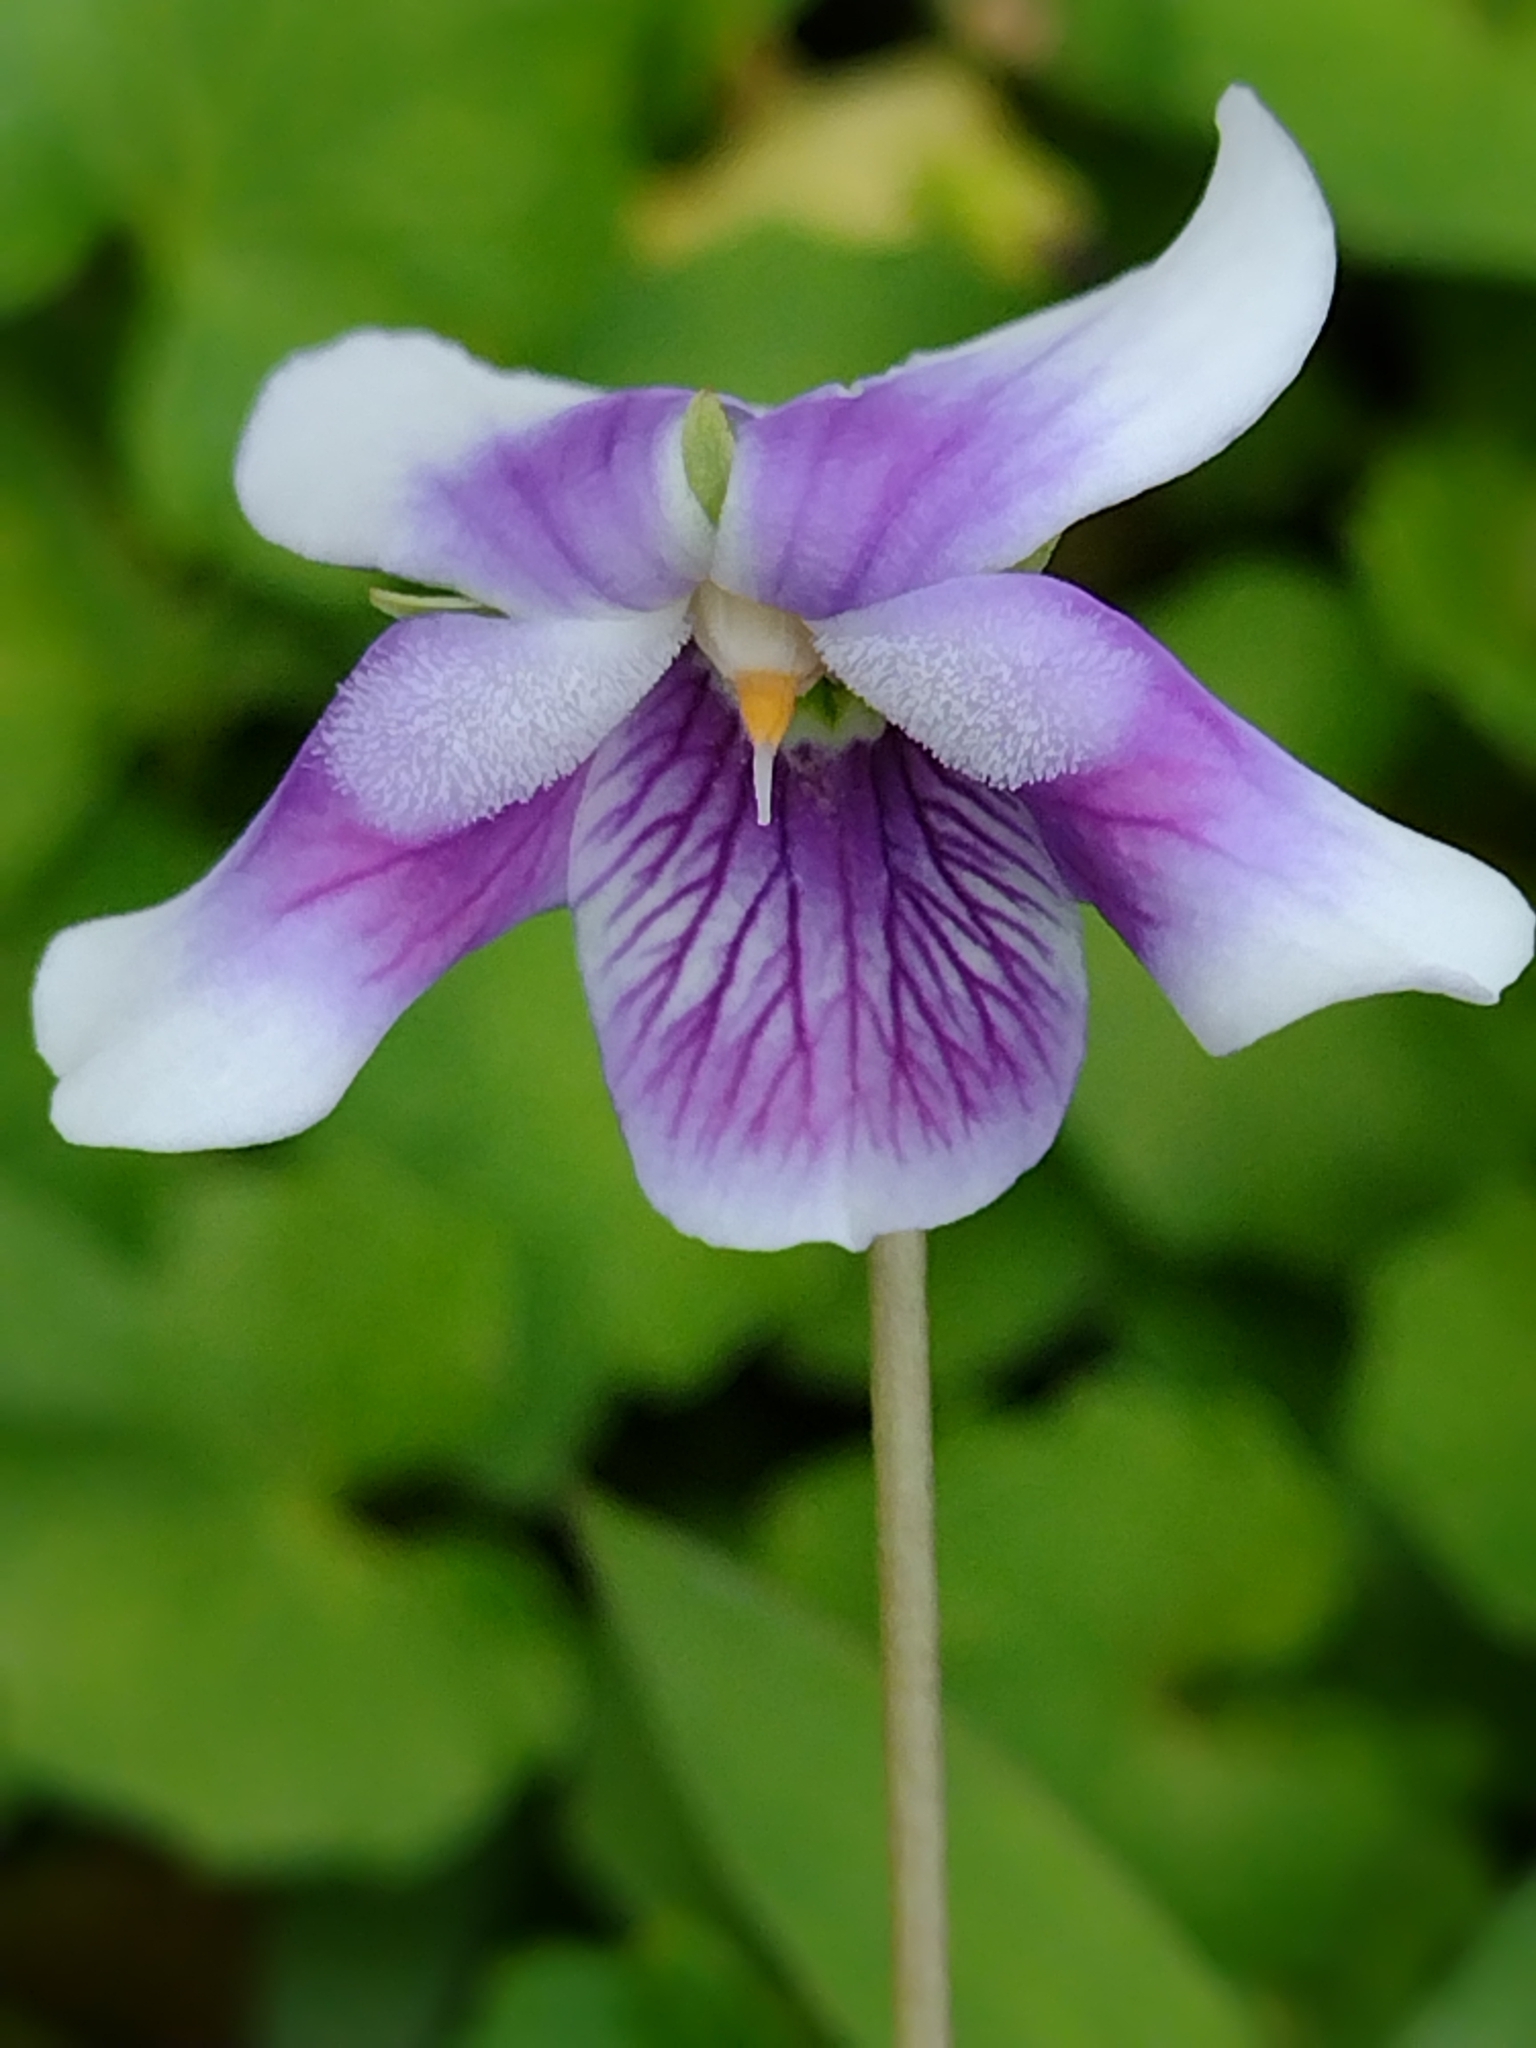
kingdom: Plantae
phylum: Tracheophyta
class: Magnoliopsida
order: Malpighiales
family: Violaceae
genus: Viola
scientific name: Viola banksii
